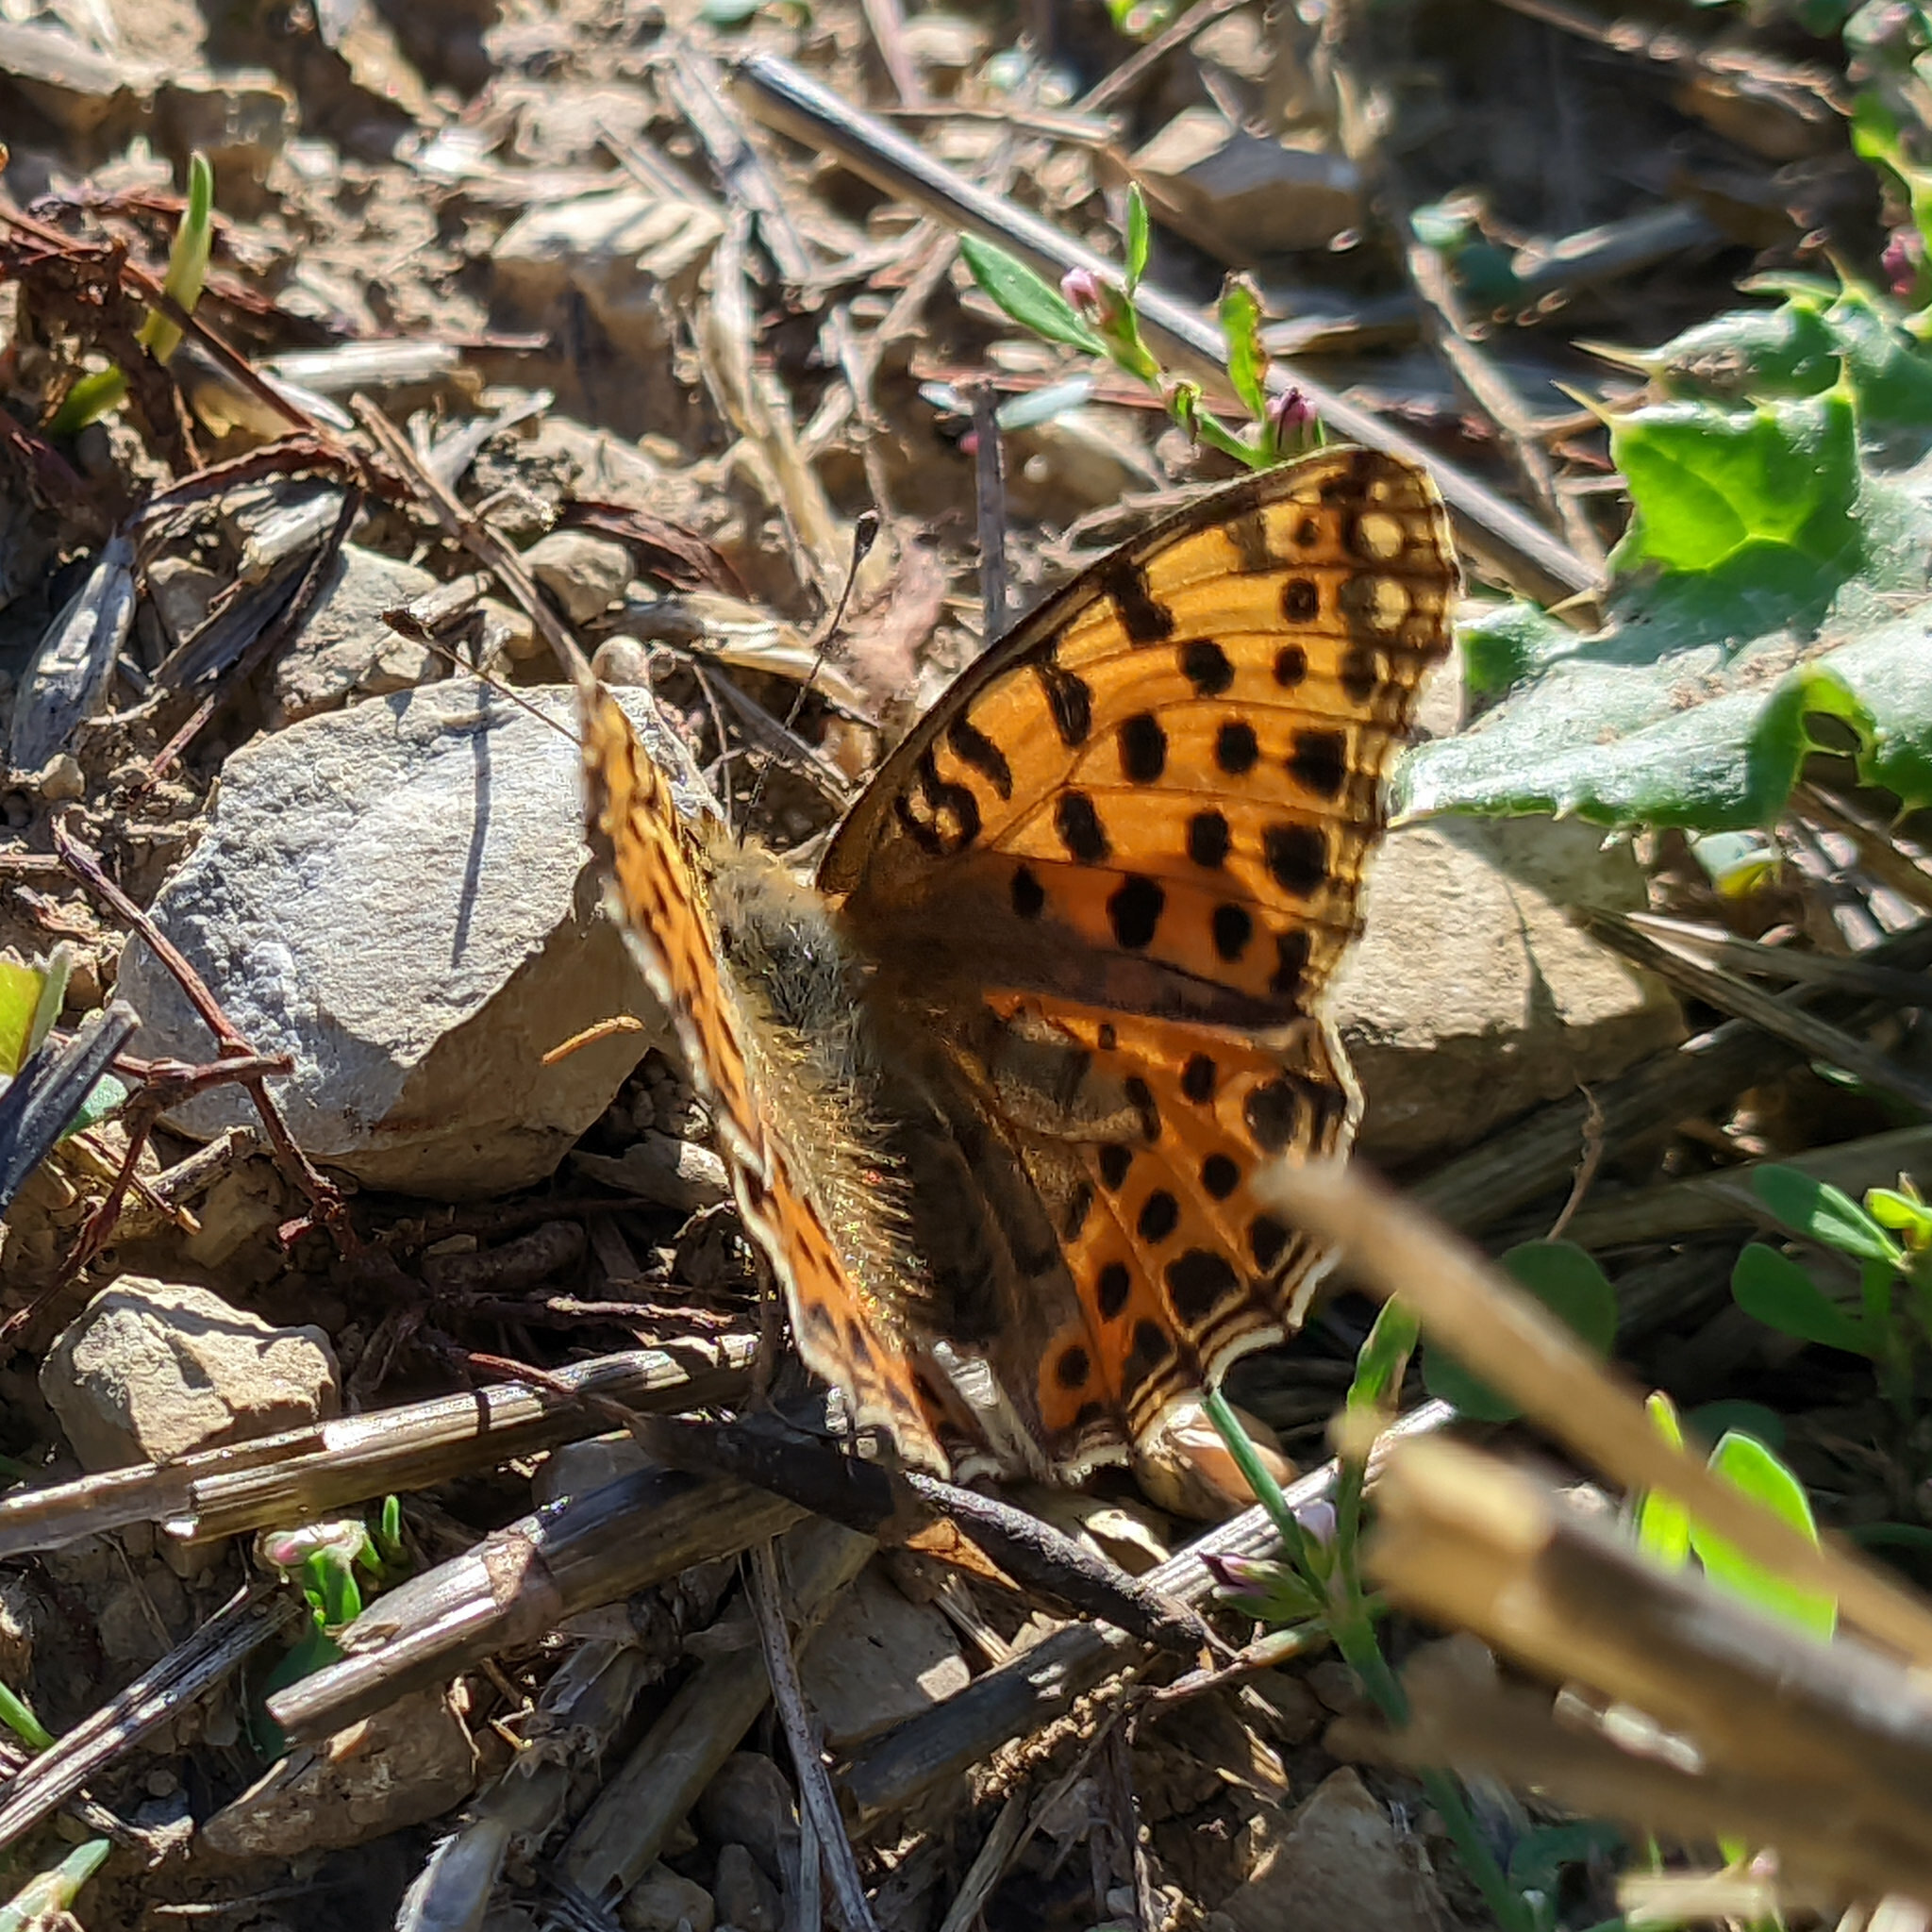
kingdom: Animalia
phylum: Arthropoda
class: Insecta
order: Lepidoptera
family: Nymphalidae
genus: Issoria
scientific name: Issoria lathonia
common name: Queen of spain fritillary
